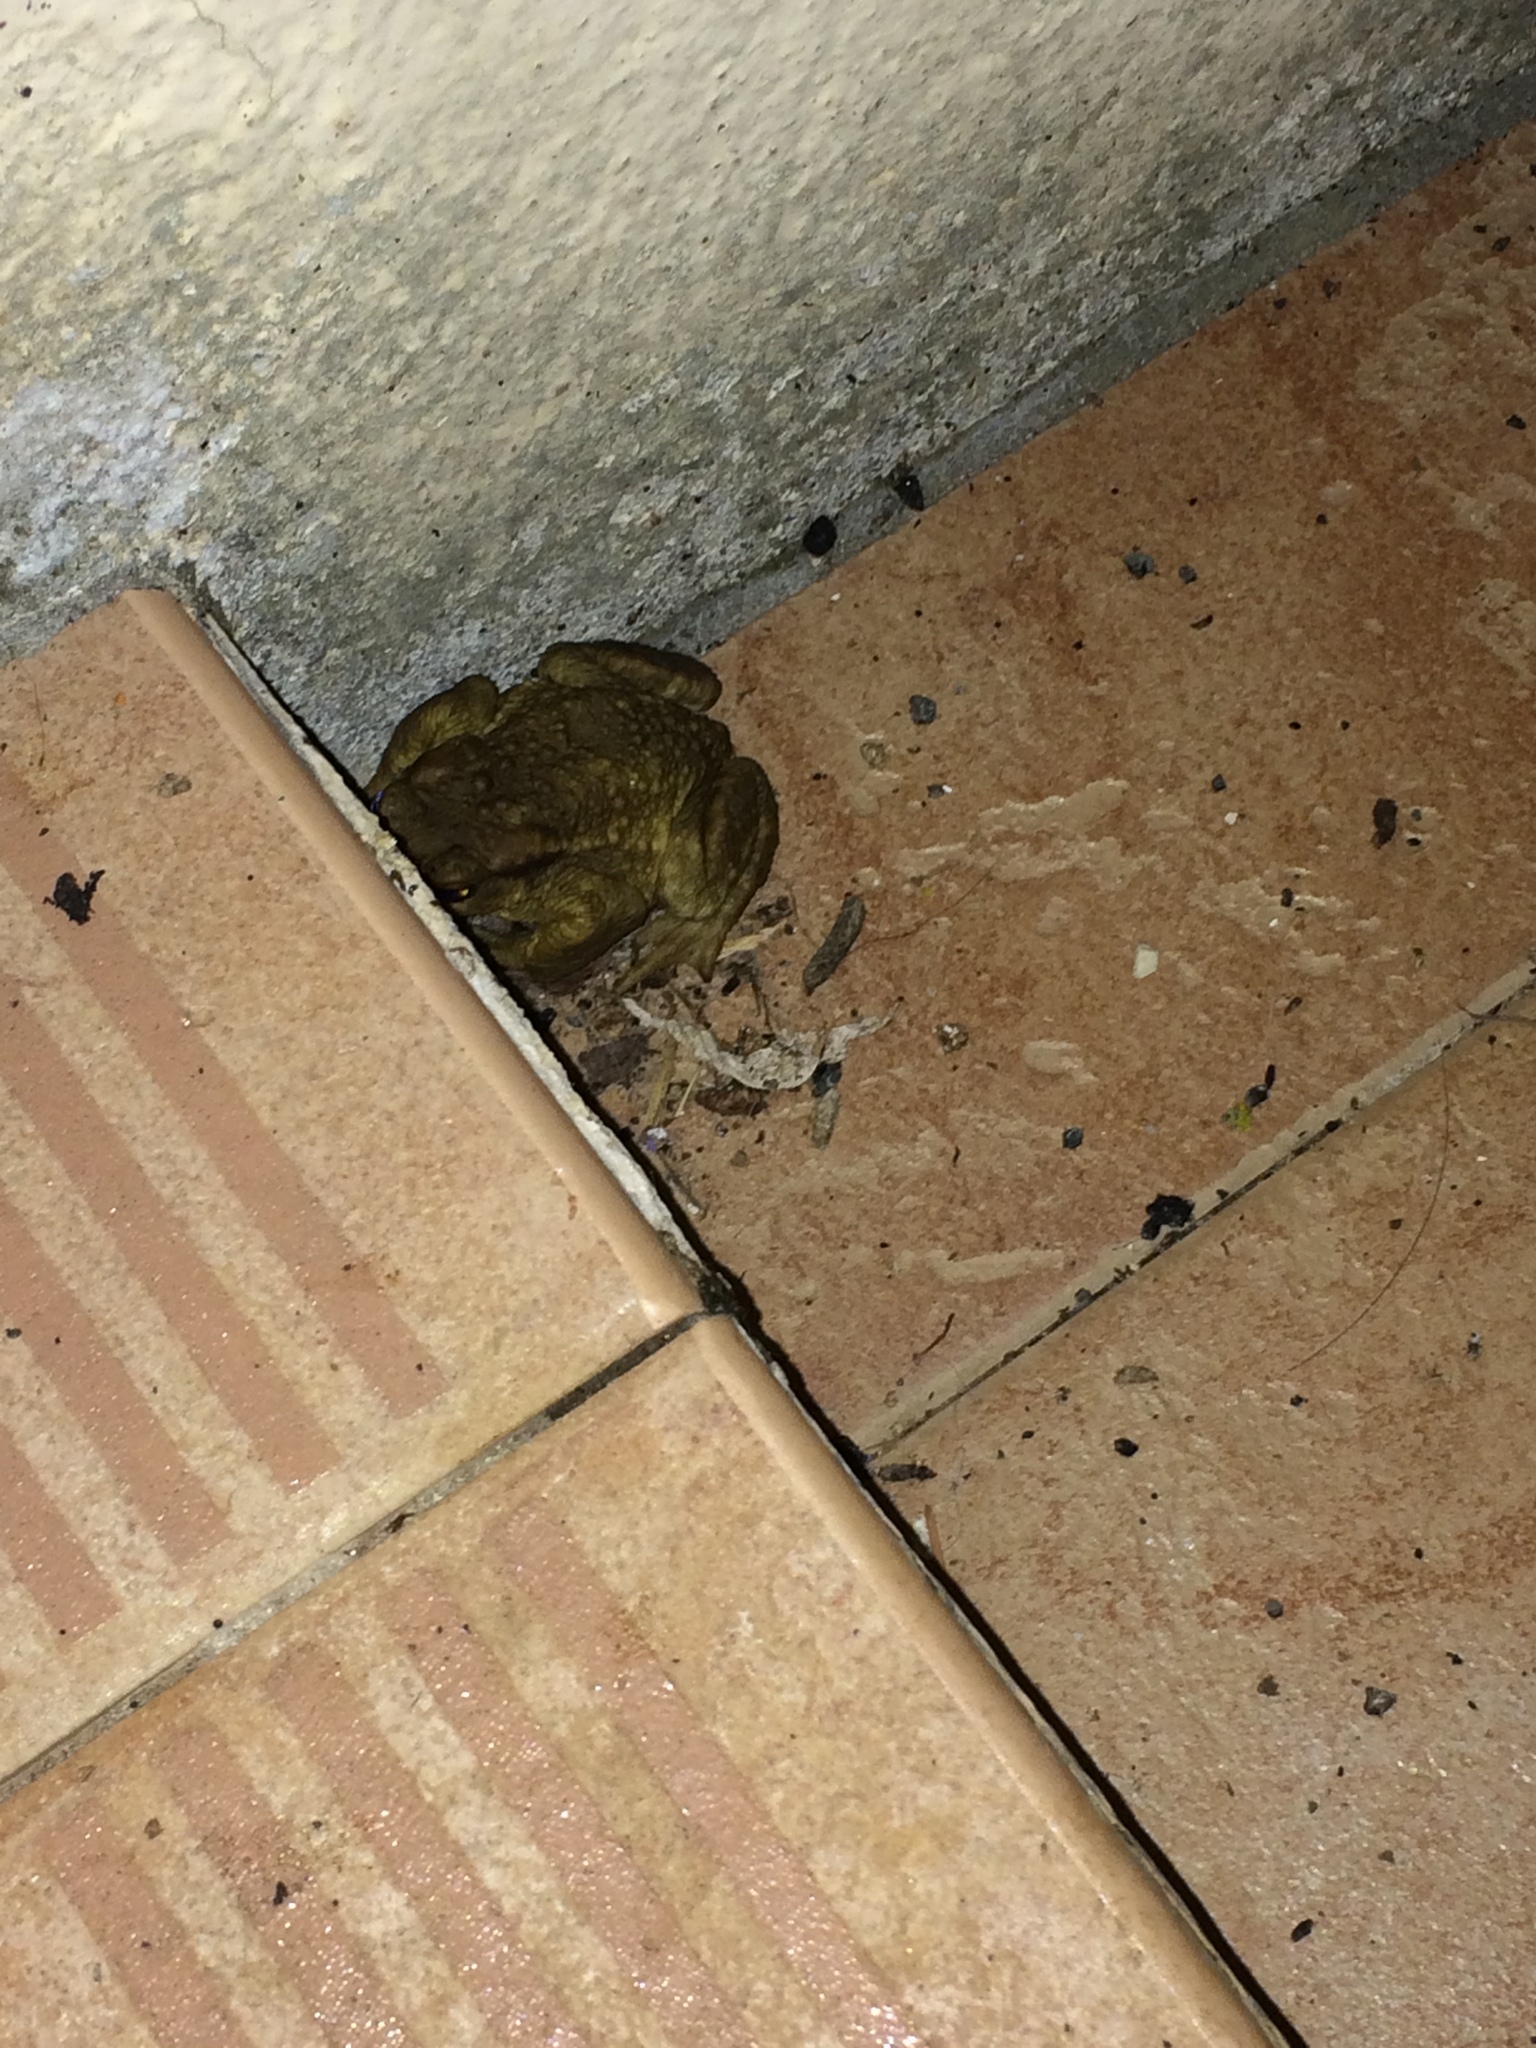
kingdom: Animalia
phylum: Chordata
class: Amphibia
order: Anura
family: Bufonidae
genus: Bufo
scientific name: Bufo spinosus
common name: Western common toad
